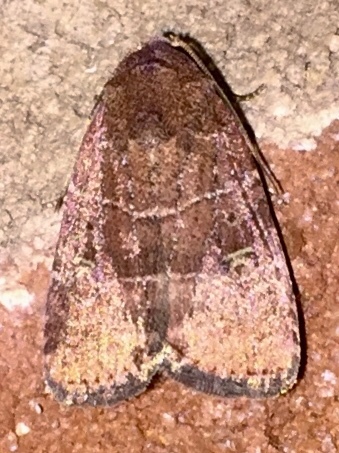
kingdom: Animalia
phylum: Arthropoda
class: Insecta
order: Lepidoptera
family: Noctuidae
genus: Elaphria
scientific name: Elaphria grata
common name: Grateful midget moth
